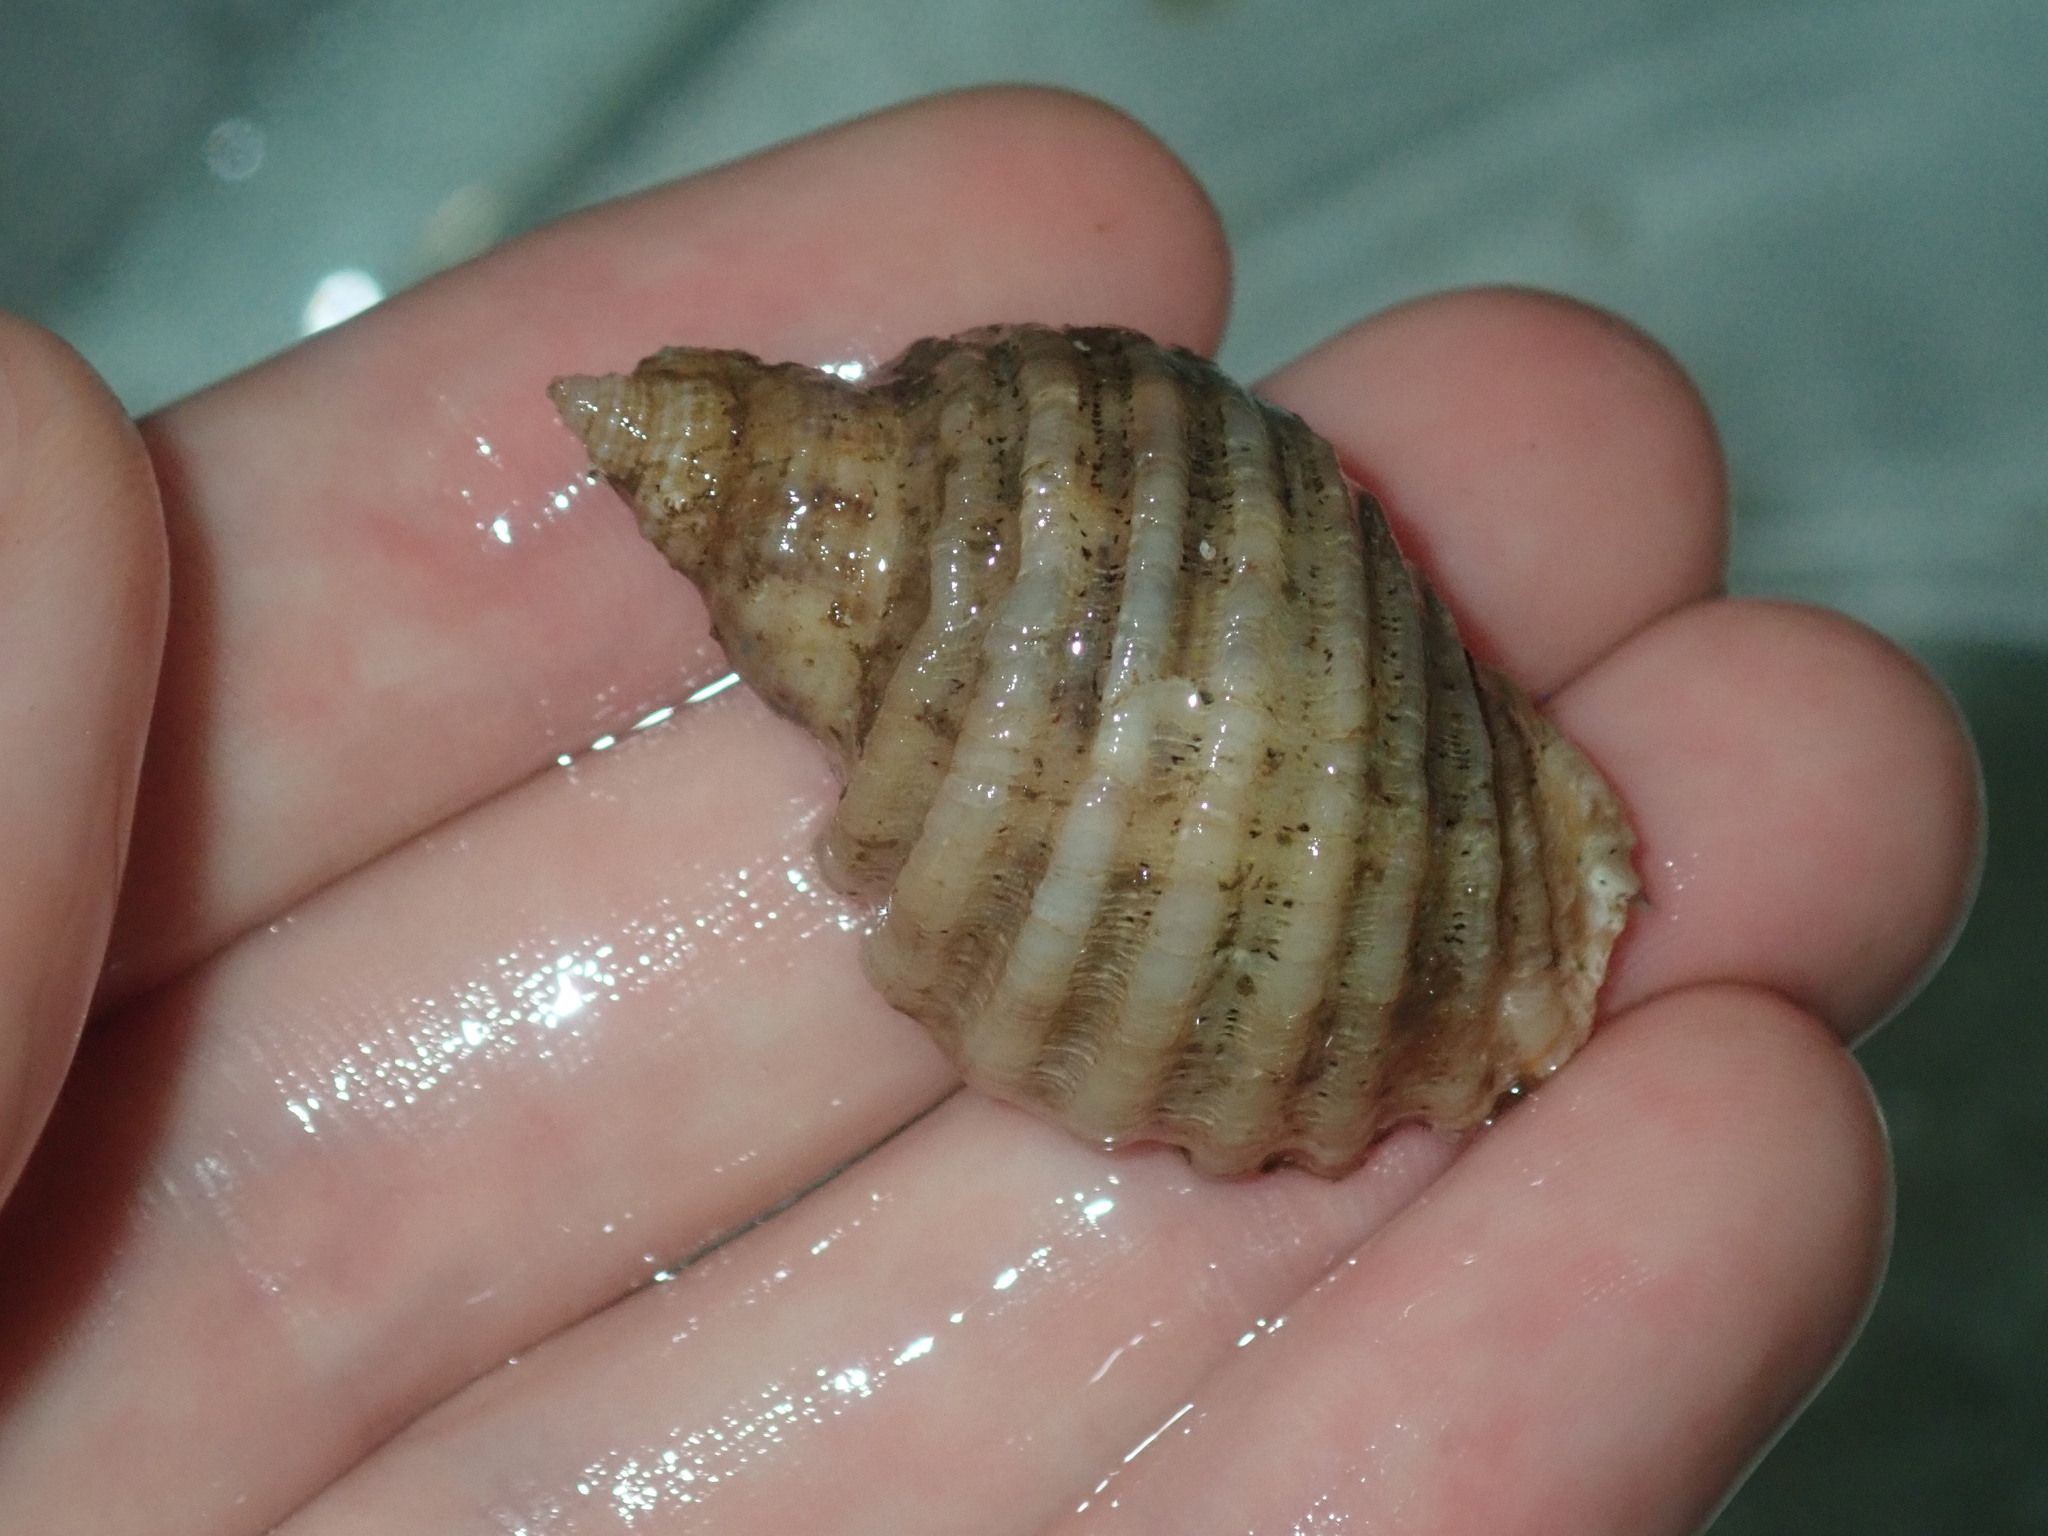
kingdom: Animalia
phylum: Mollusca
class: Gastropoda
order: Neogastropoda
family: Muricidae
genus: Dicathais
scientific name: Dicathais orbita
